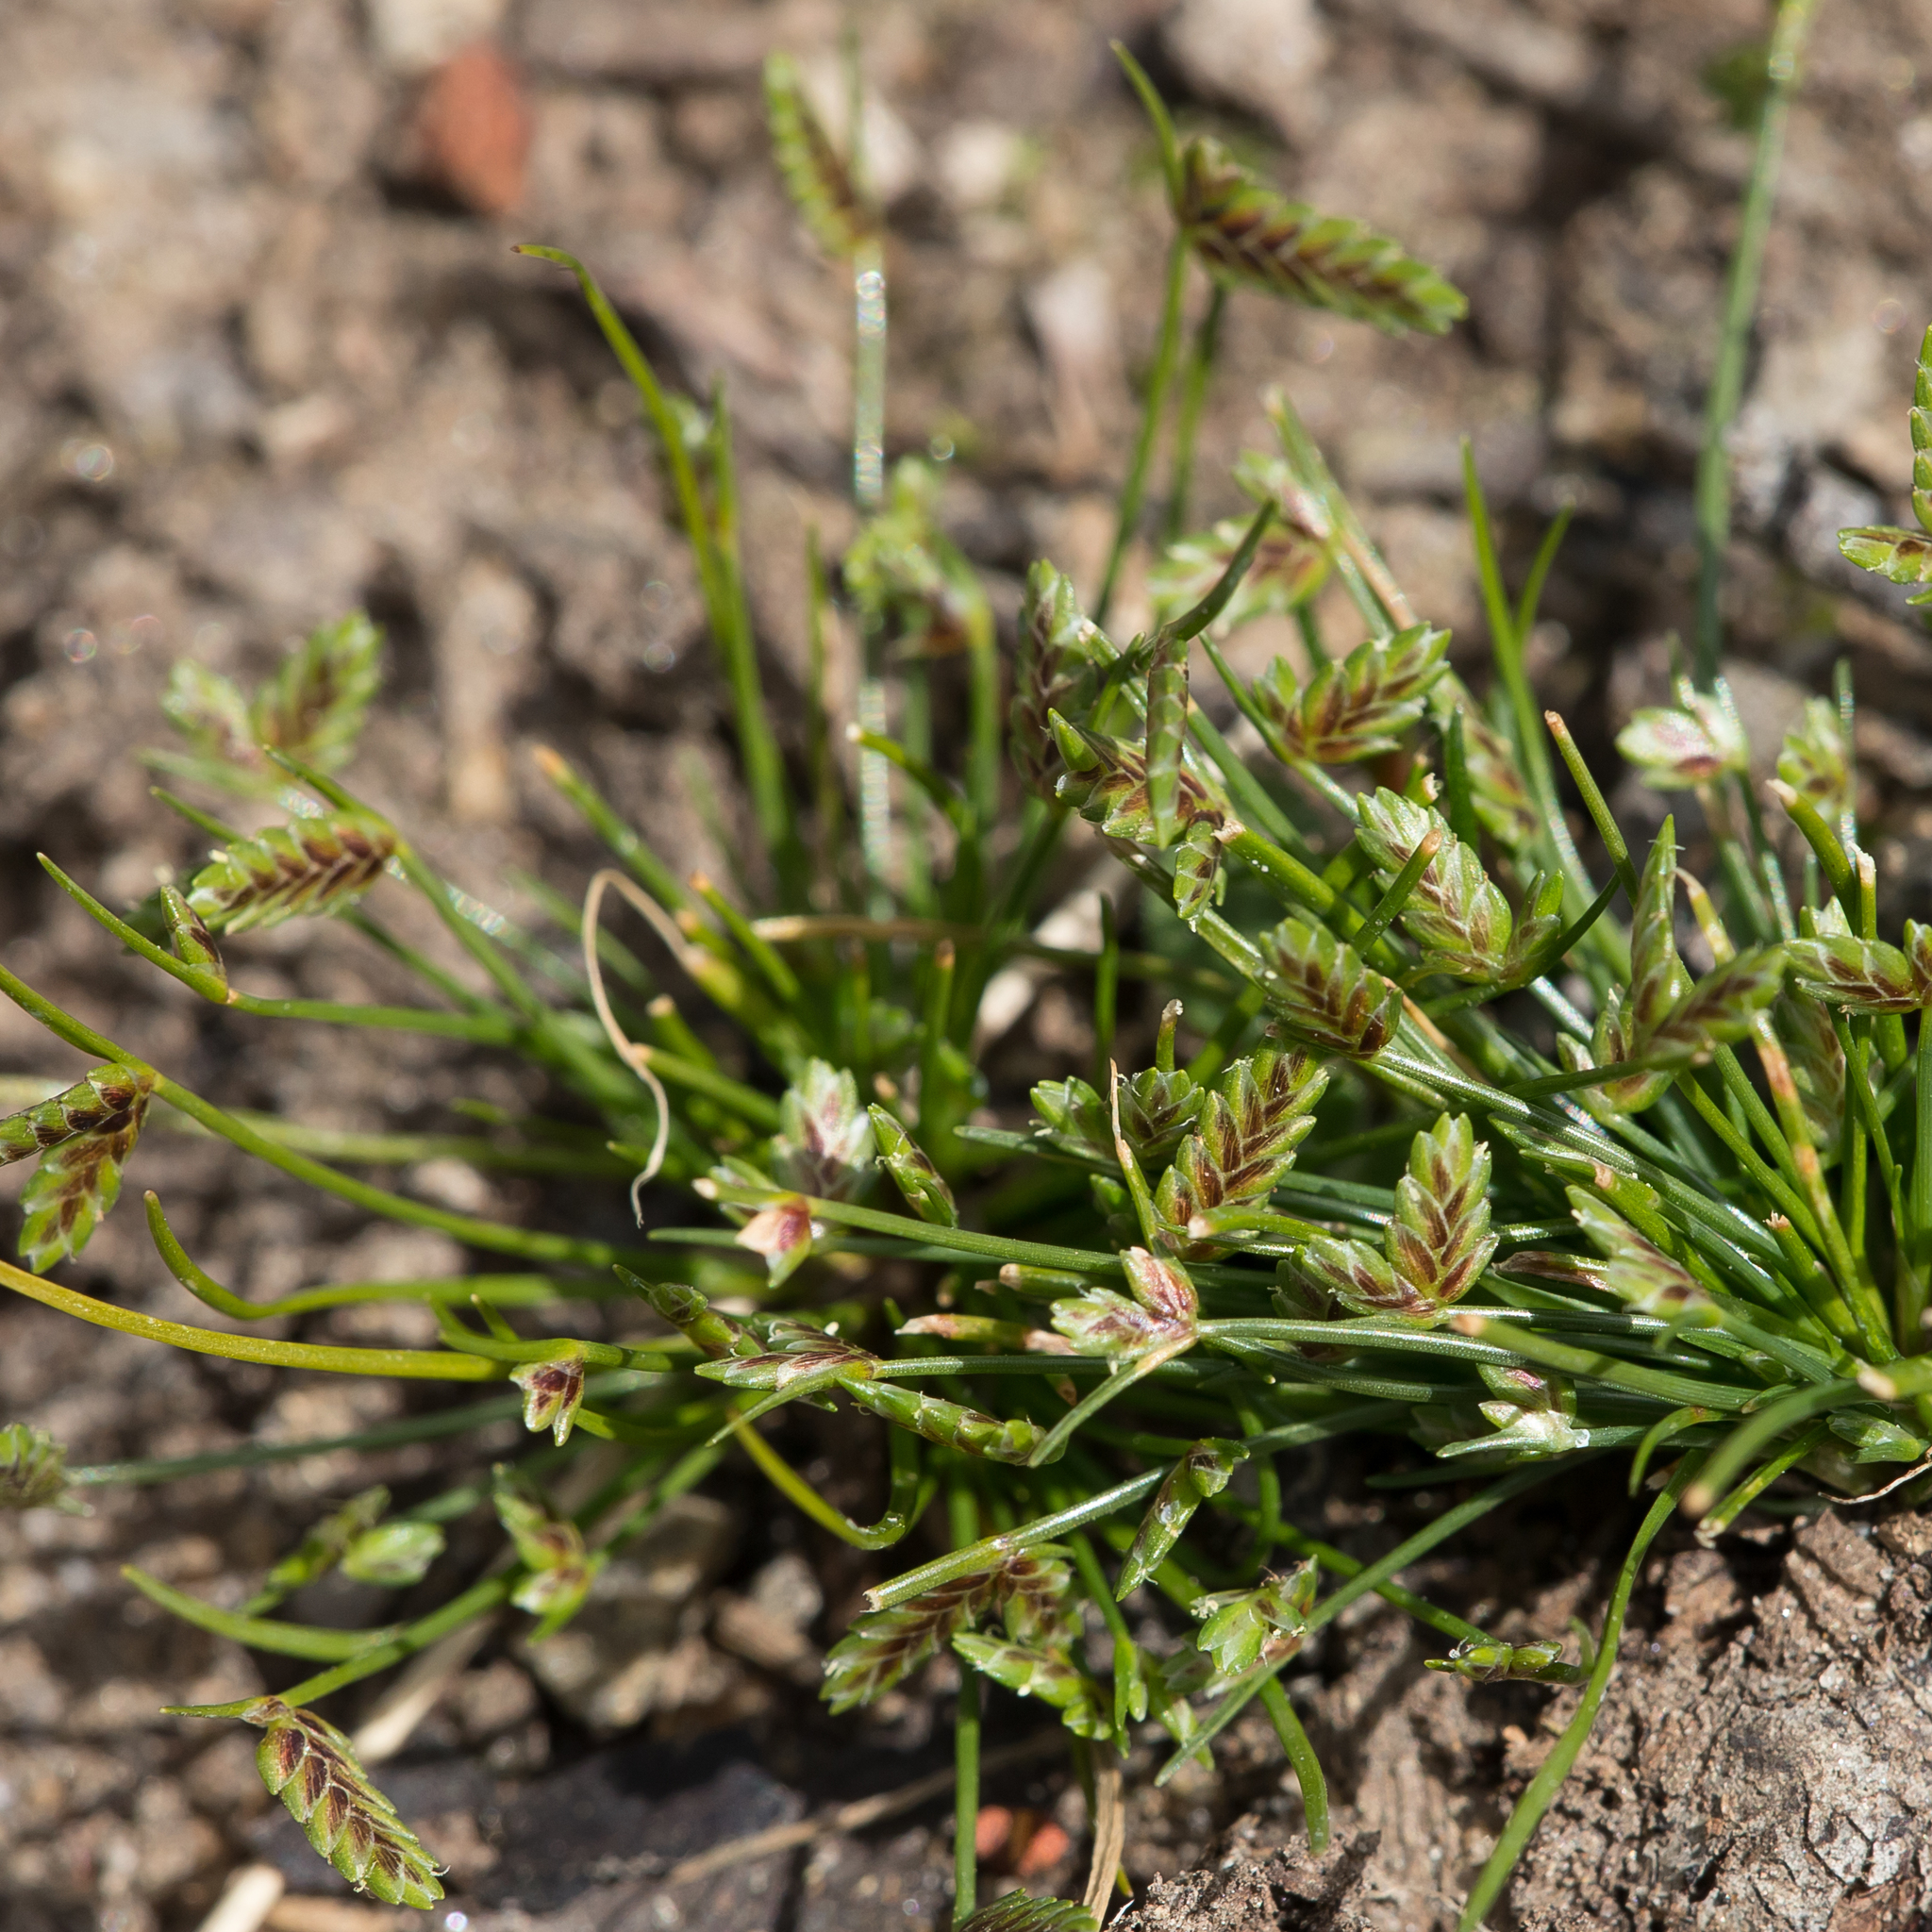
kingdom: Plantae
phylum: Tracheophyta
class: Liliopsida
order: Poales
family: Cyperaceae
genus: Isolepis
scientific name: Isolepis levynsiana
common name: Sedge
